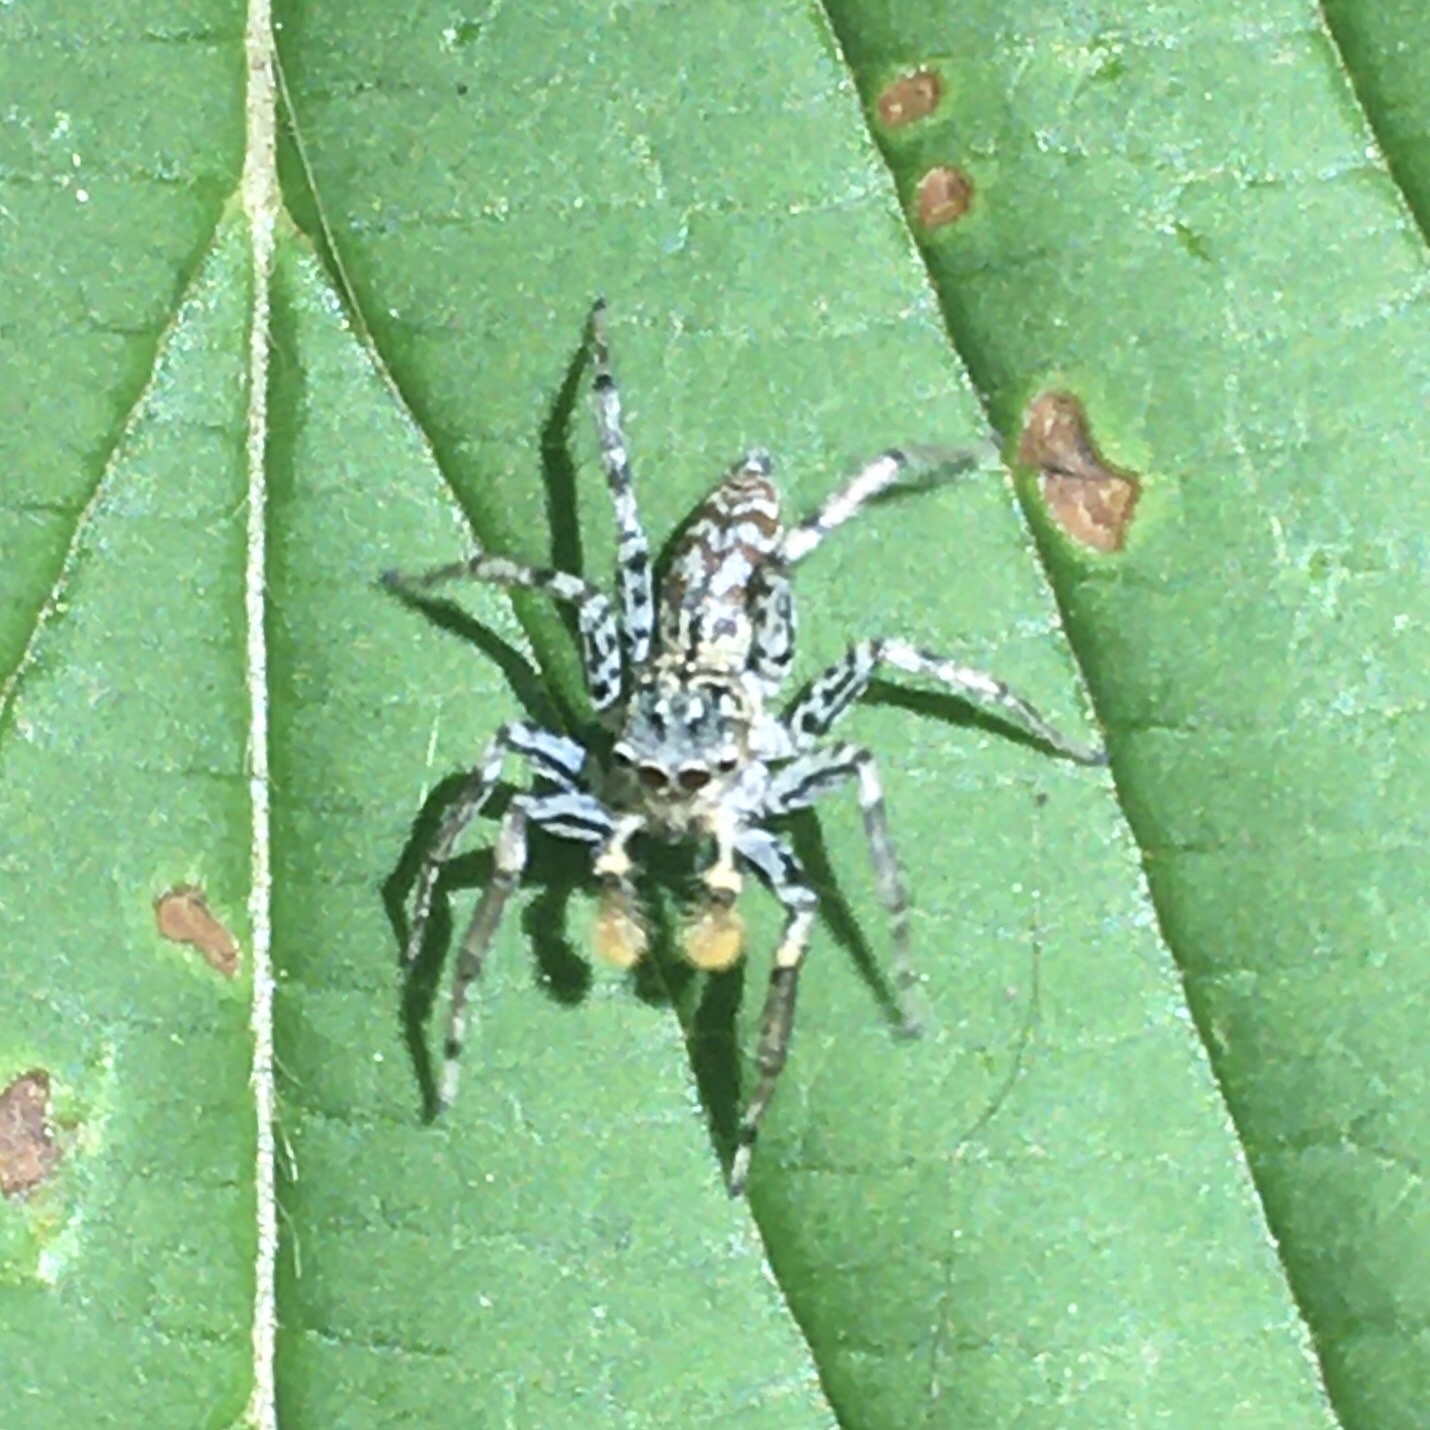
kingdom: Animalia
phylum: Arthropoda
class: Arachnida
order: Araneae
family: Salticidae
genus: Maevia
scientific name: Maevia inclemens
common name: Dimorphic jumper
